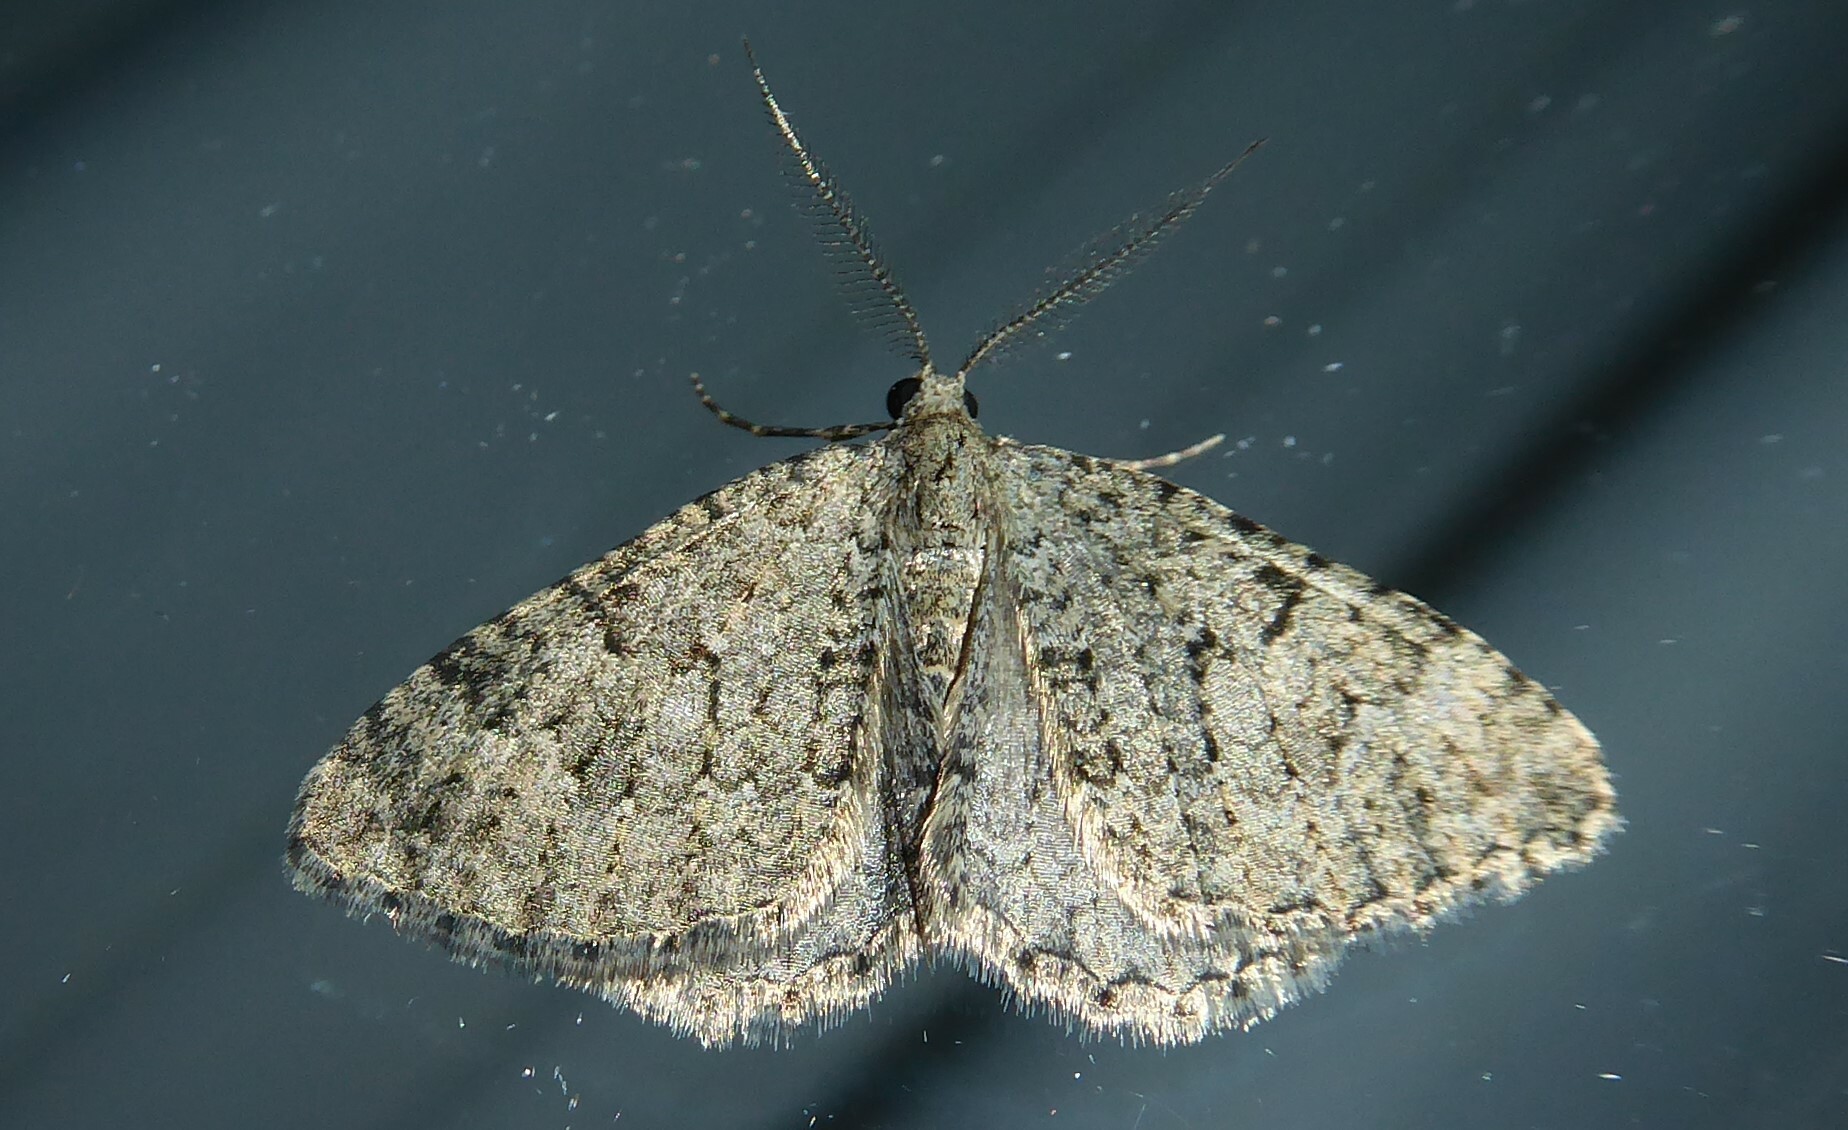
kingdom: Animalia
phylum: Arthropoda
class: Insecta
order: Lepidoptera
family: Geometridae
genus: Helastia
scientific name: Helastia corcularia
